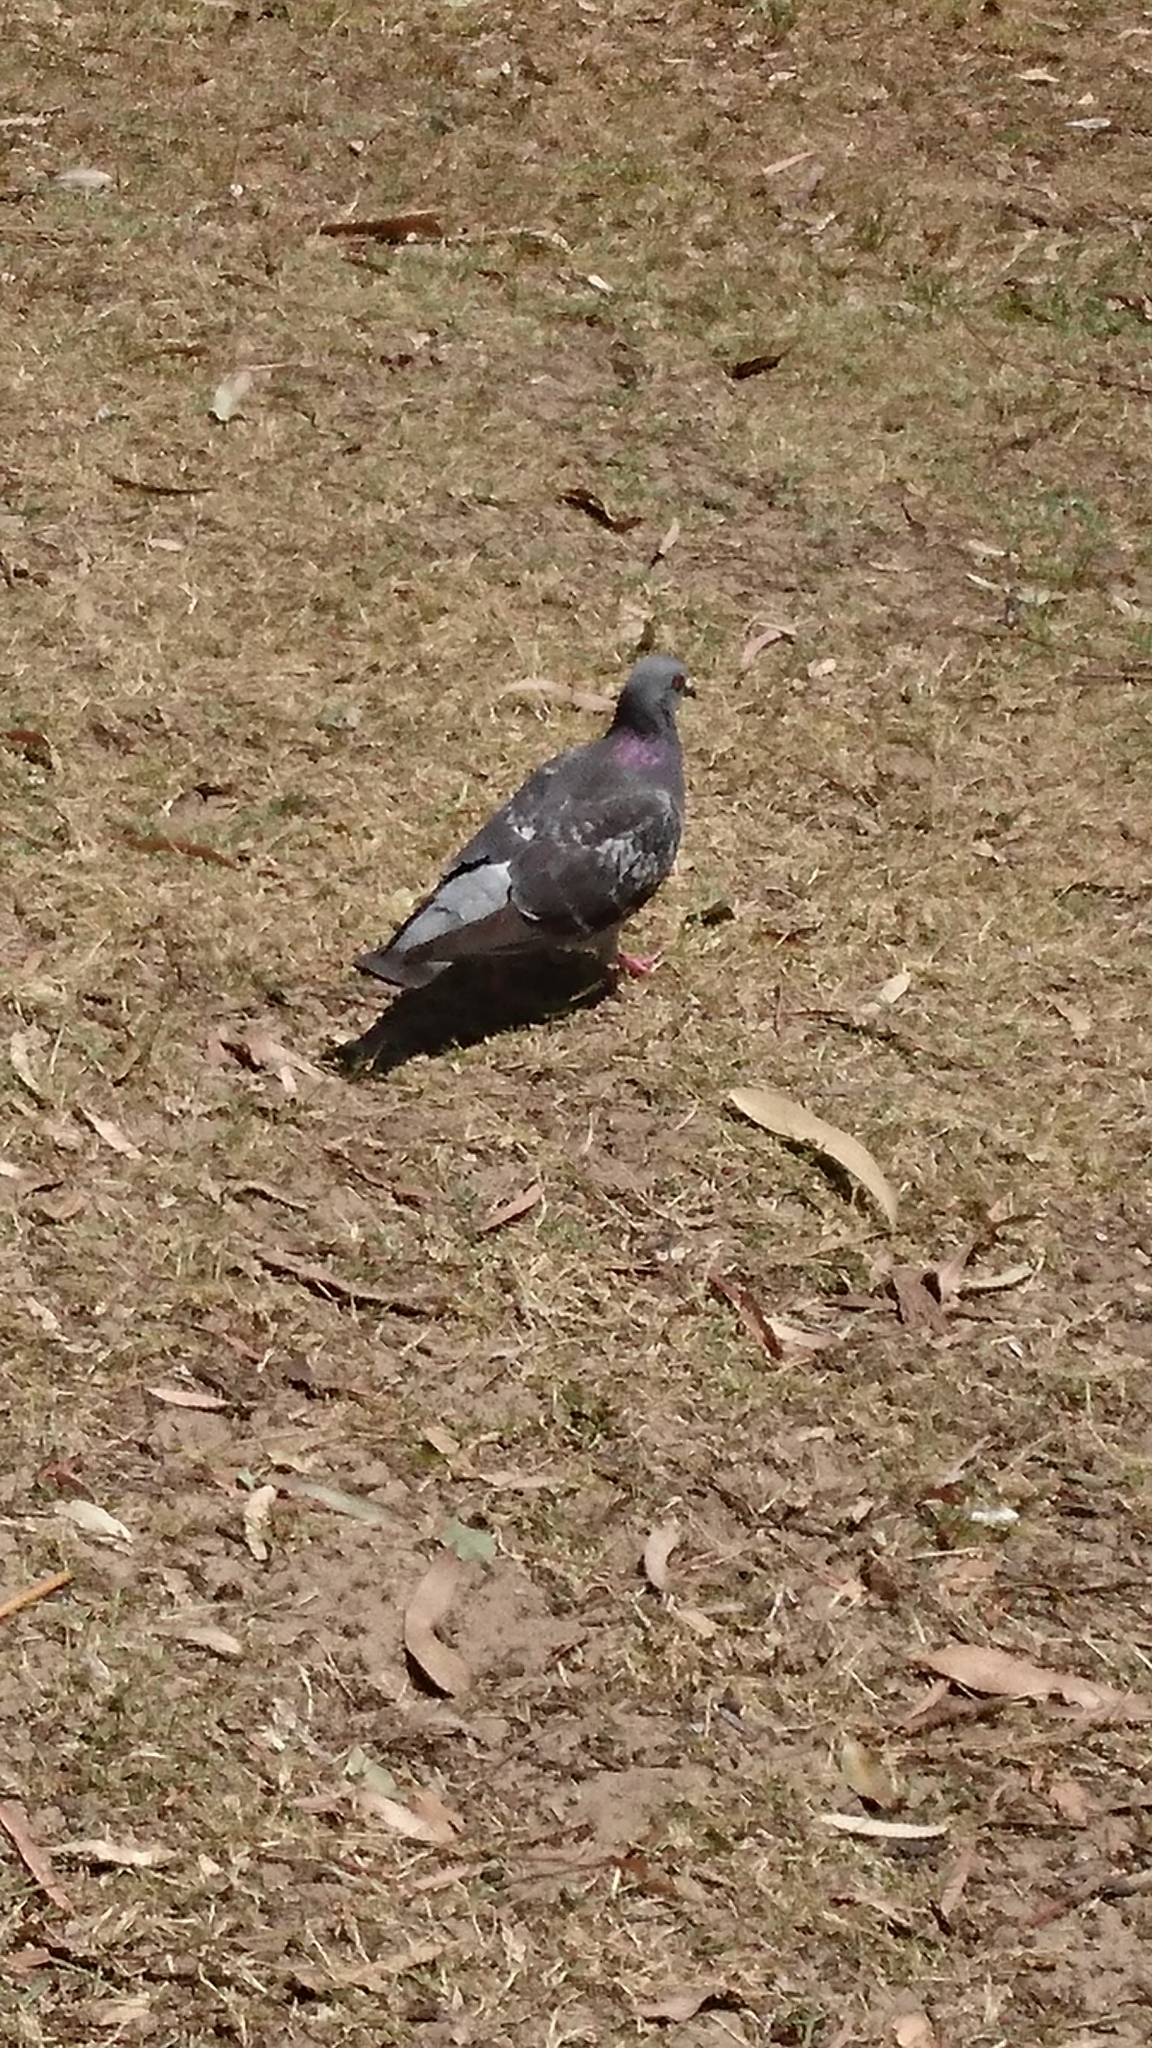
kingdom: Animalia
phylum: Chordata
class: Aves
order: Columbiformes
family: Columbidae
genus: Columba
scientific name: Columba livia
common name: Rock pigeon
